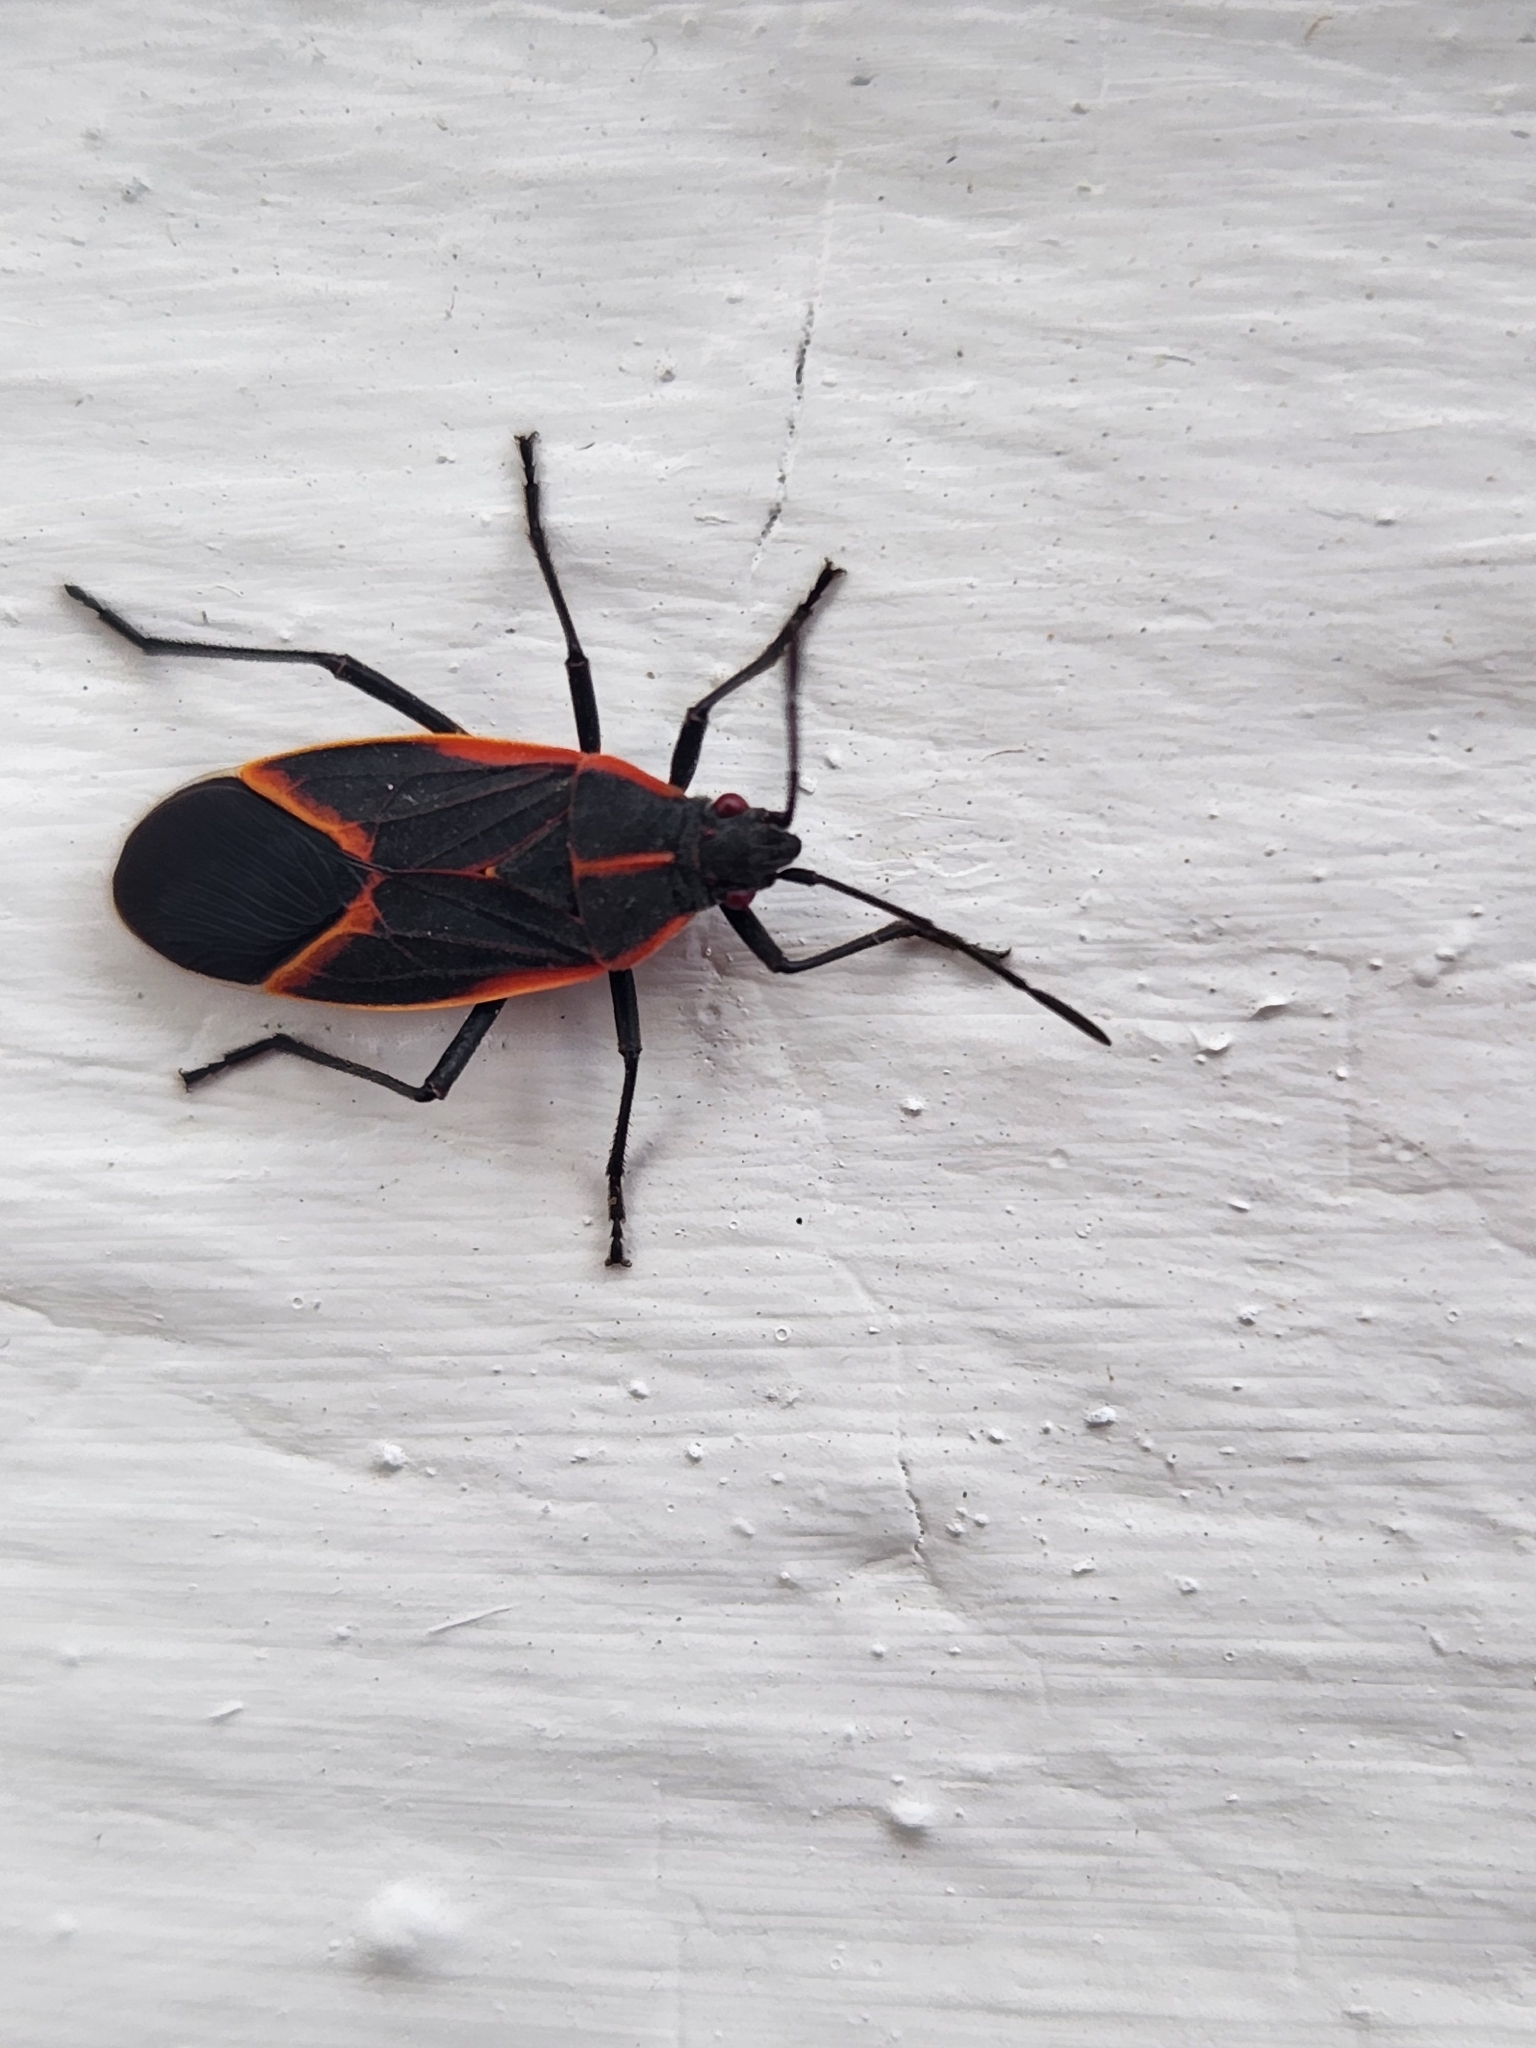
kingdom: Animalia
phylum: Arthropoda
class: Insecta
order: Hemiptera
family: Rhopalidae
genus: Boisea
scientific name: Boisea trivittata
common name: Boxelder bug
